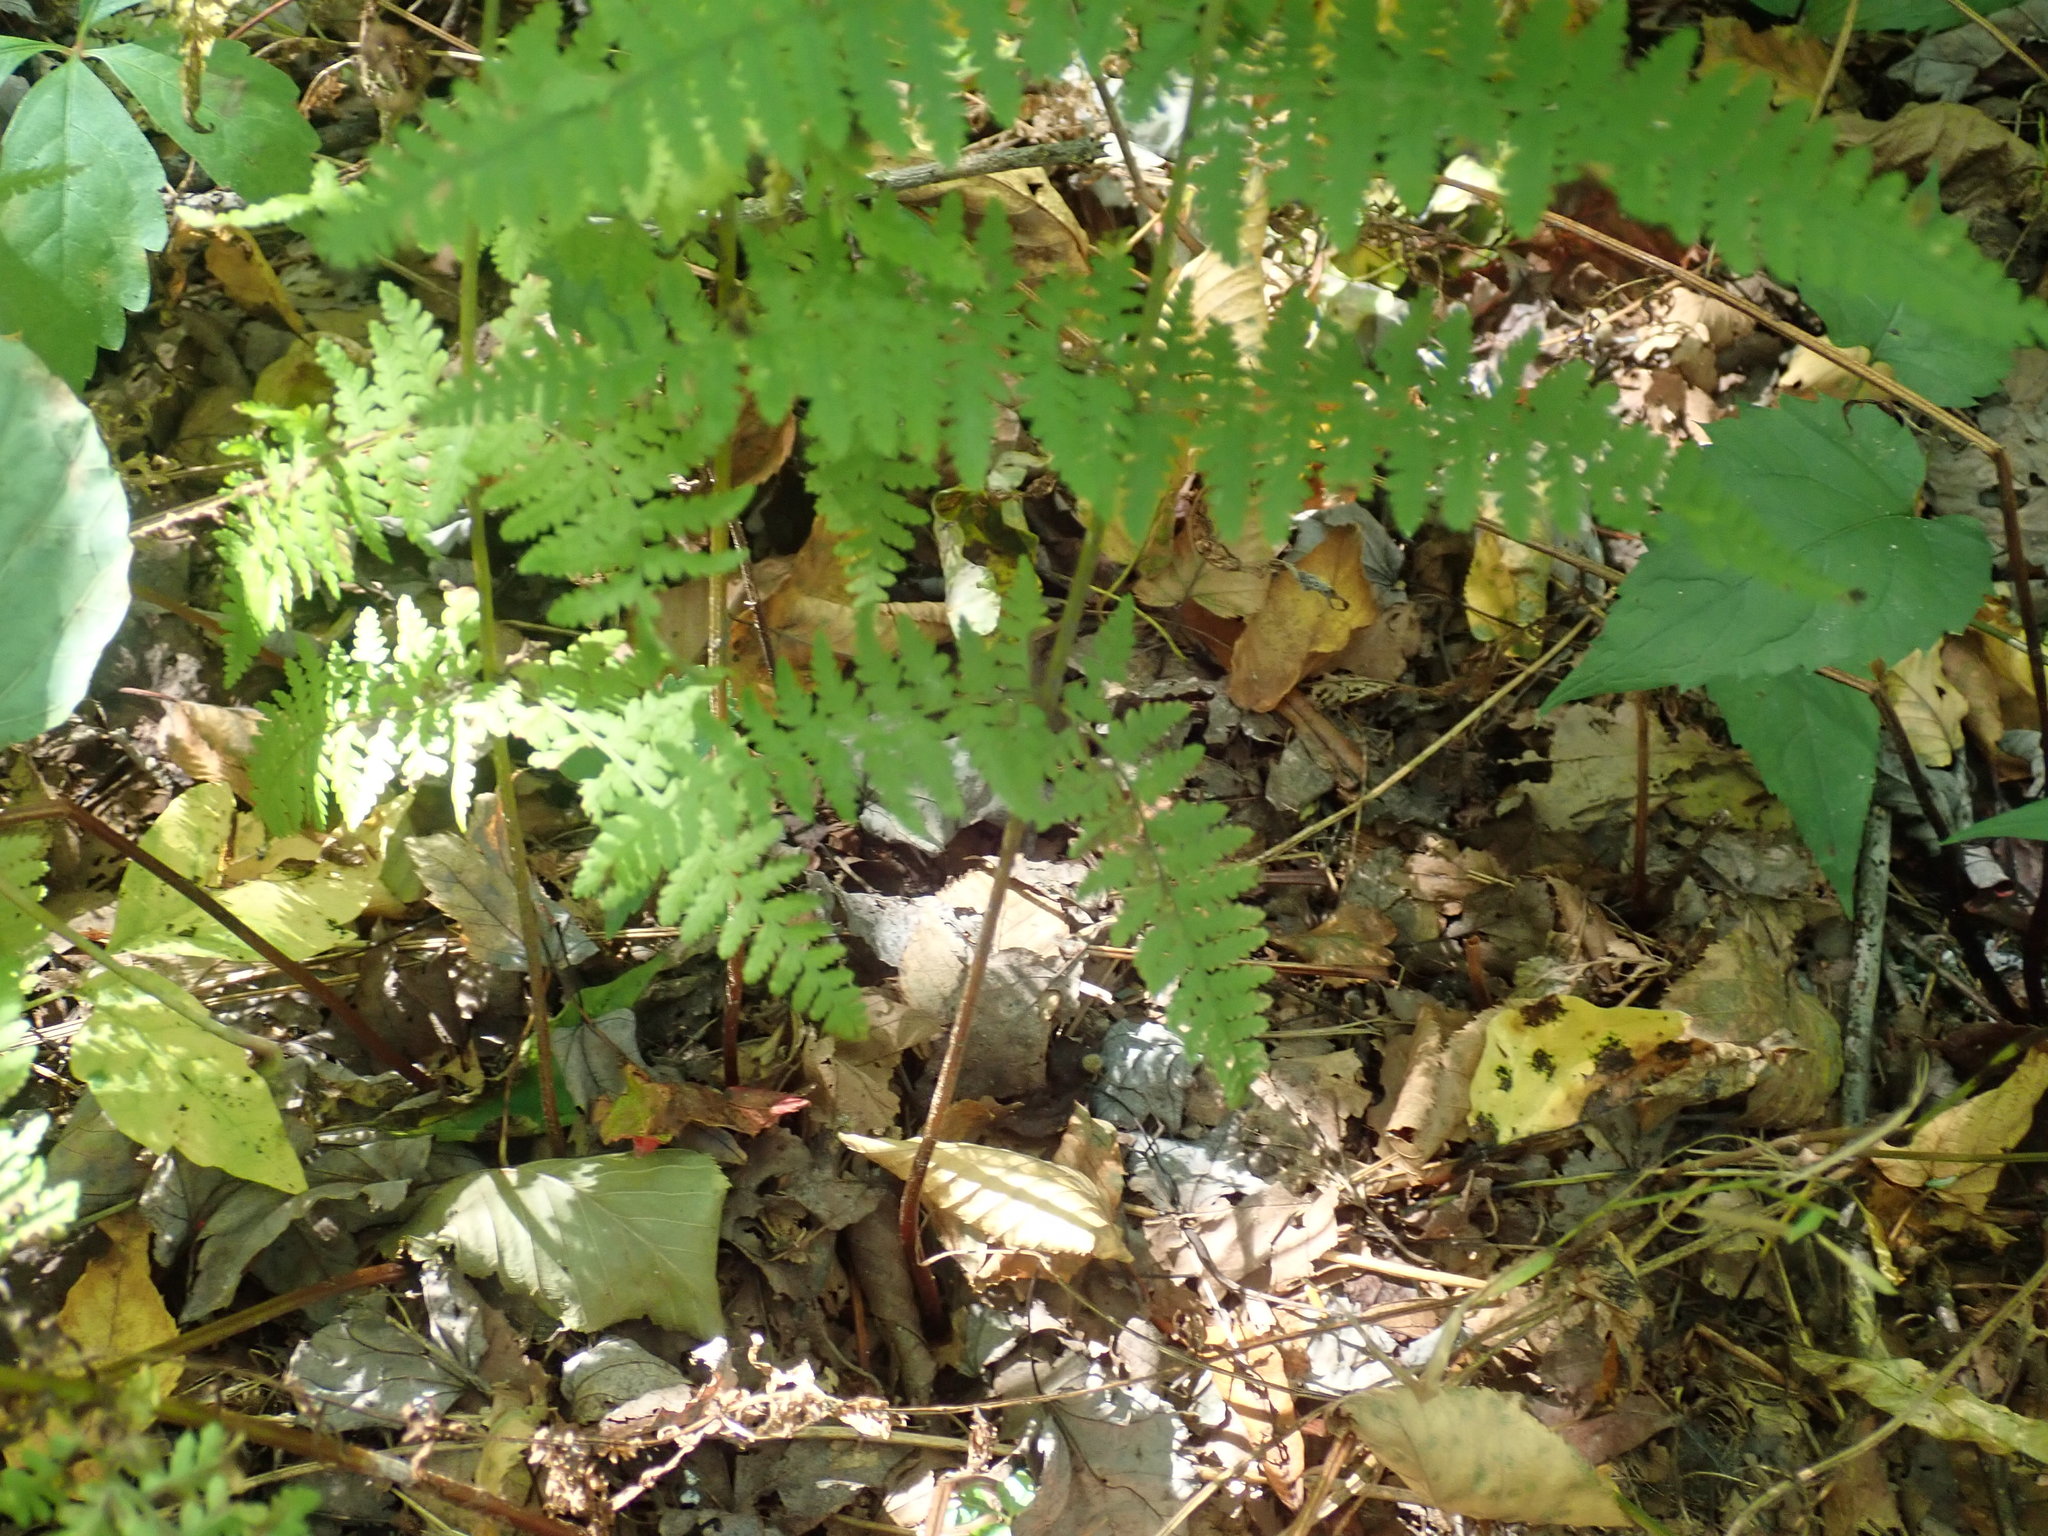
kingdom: Plantae
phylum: Tracheophyta
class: Polypodiopsida
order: Polypodiales
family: Dennstaedtiaceae
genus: Sitobolium
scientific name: Sitobolium punctilobum
